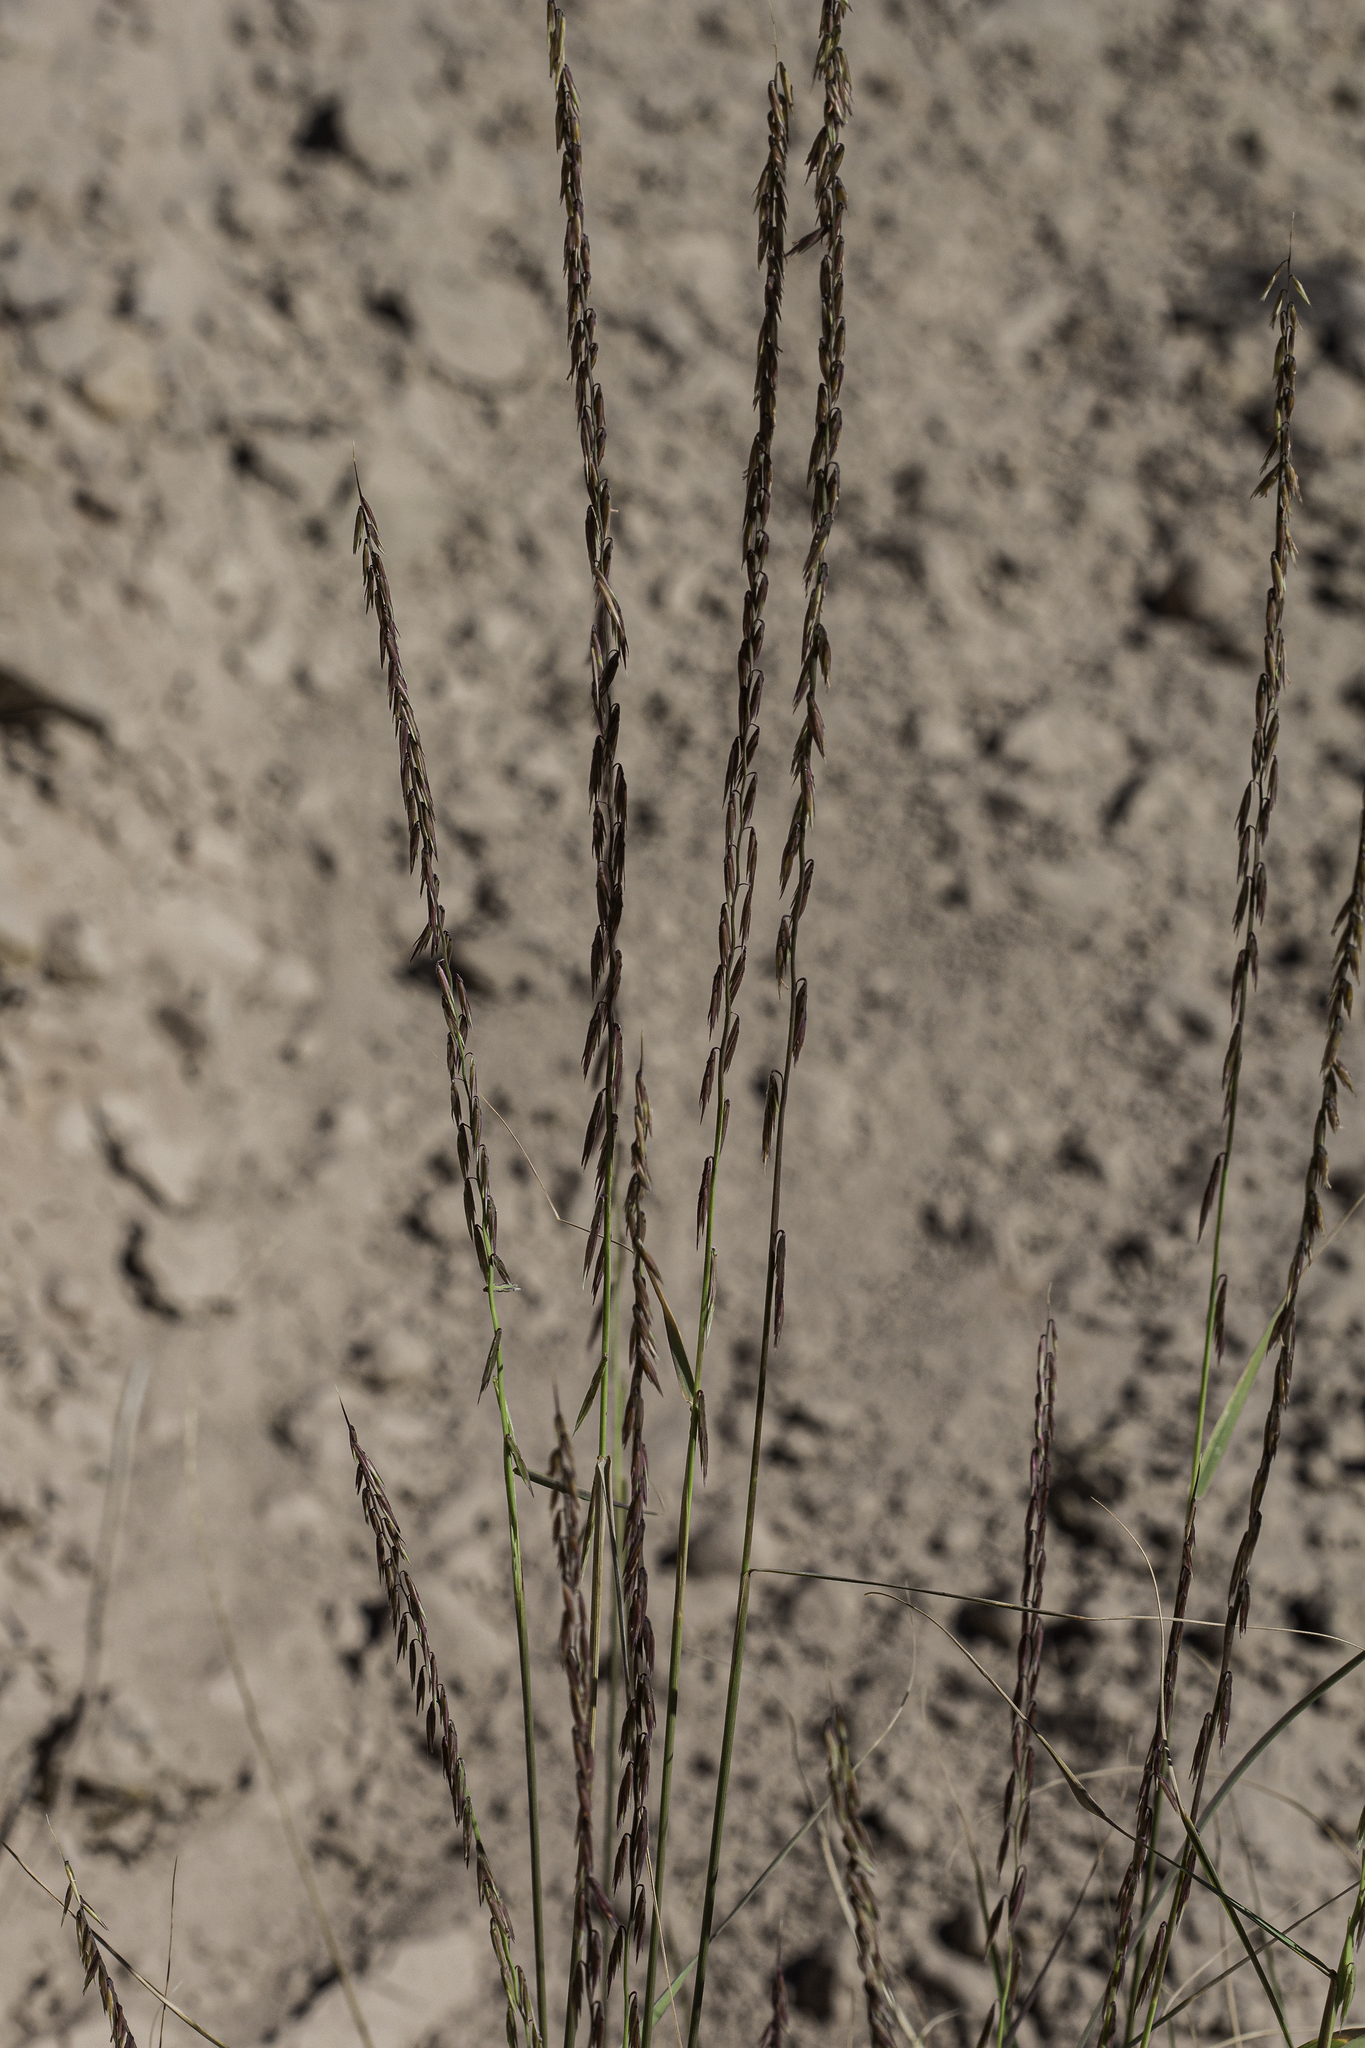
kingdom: Plantae
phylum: Tracheophyta
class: Liliopsida
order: Poales
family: Poaceae
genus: Bouteloua
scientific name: Bouteloua curtipendula
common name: Side-oats grama
